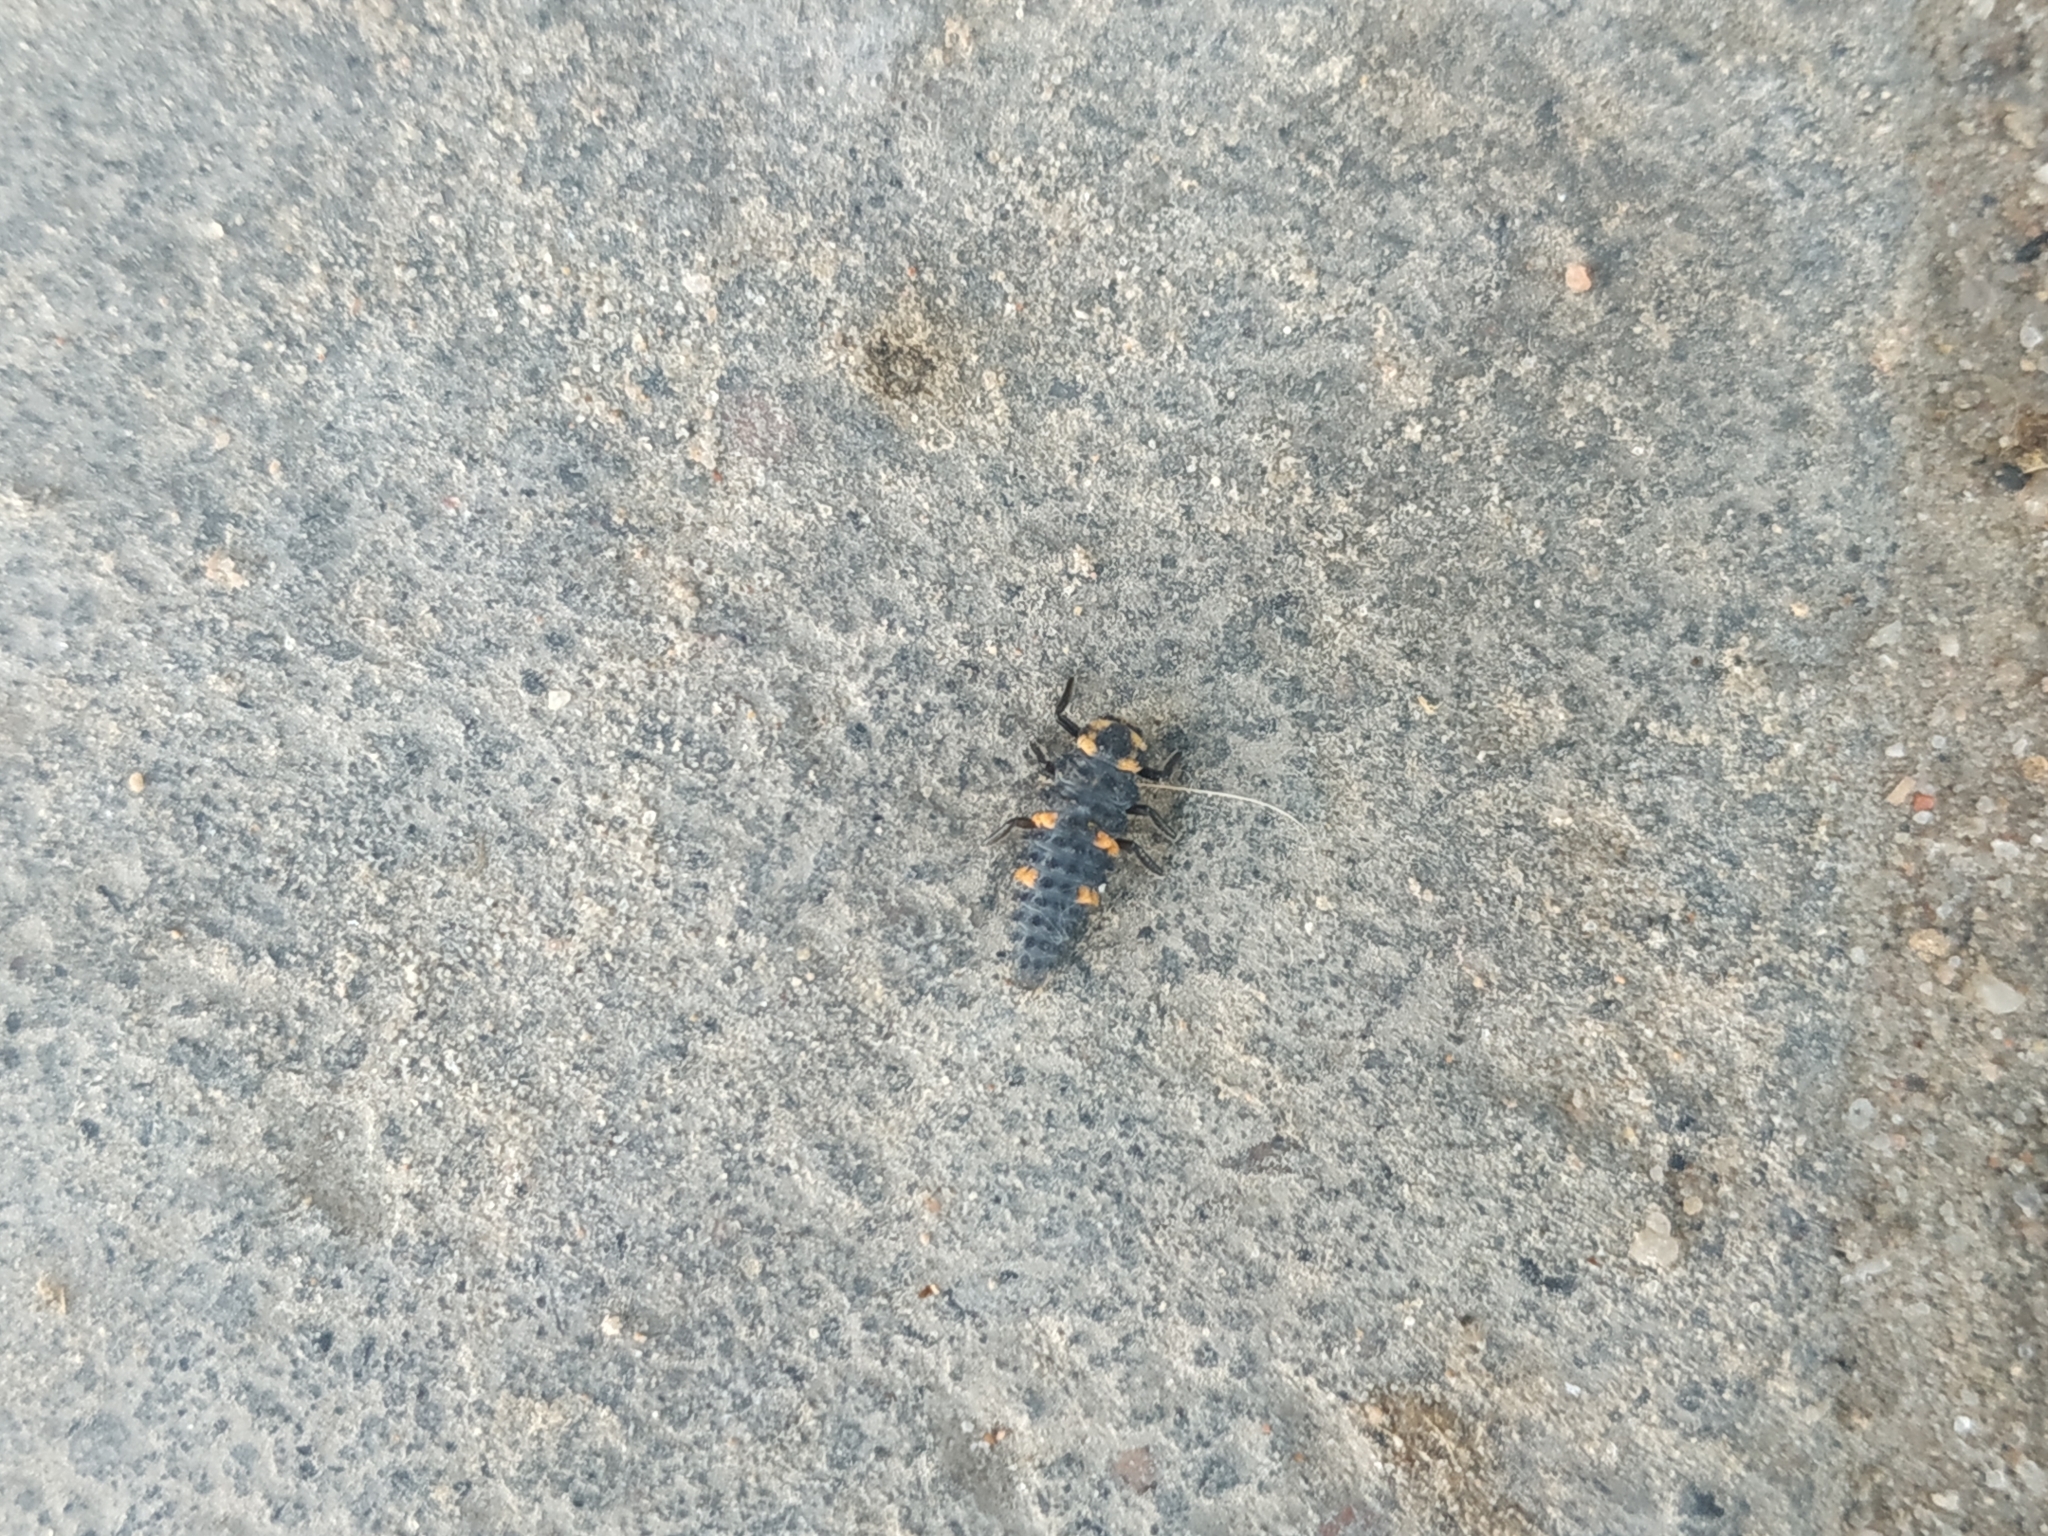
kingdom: Animalia
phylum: Arthropoda
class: Insecta
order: Coleoptera
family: Coccinellidae
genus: Coccinella
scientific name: Coccinella septempunctata
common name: Sevenspotted lady beetle
